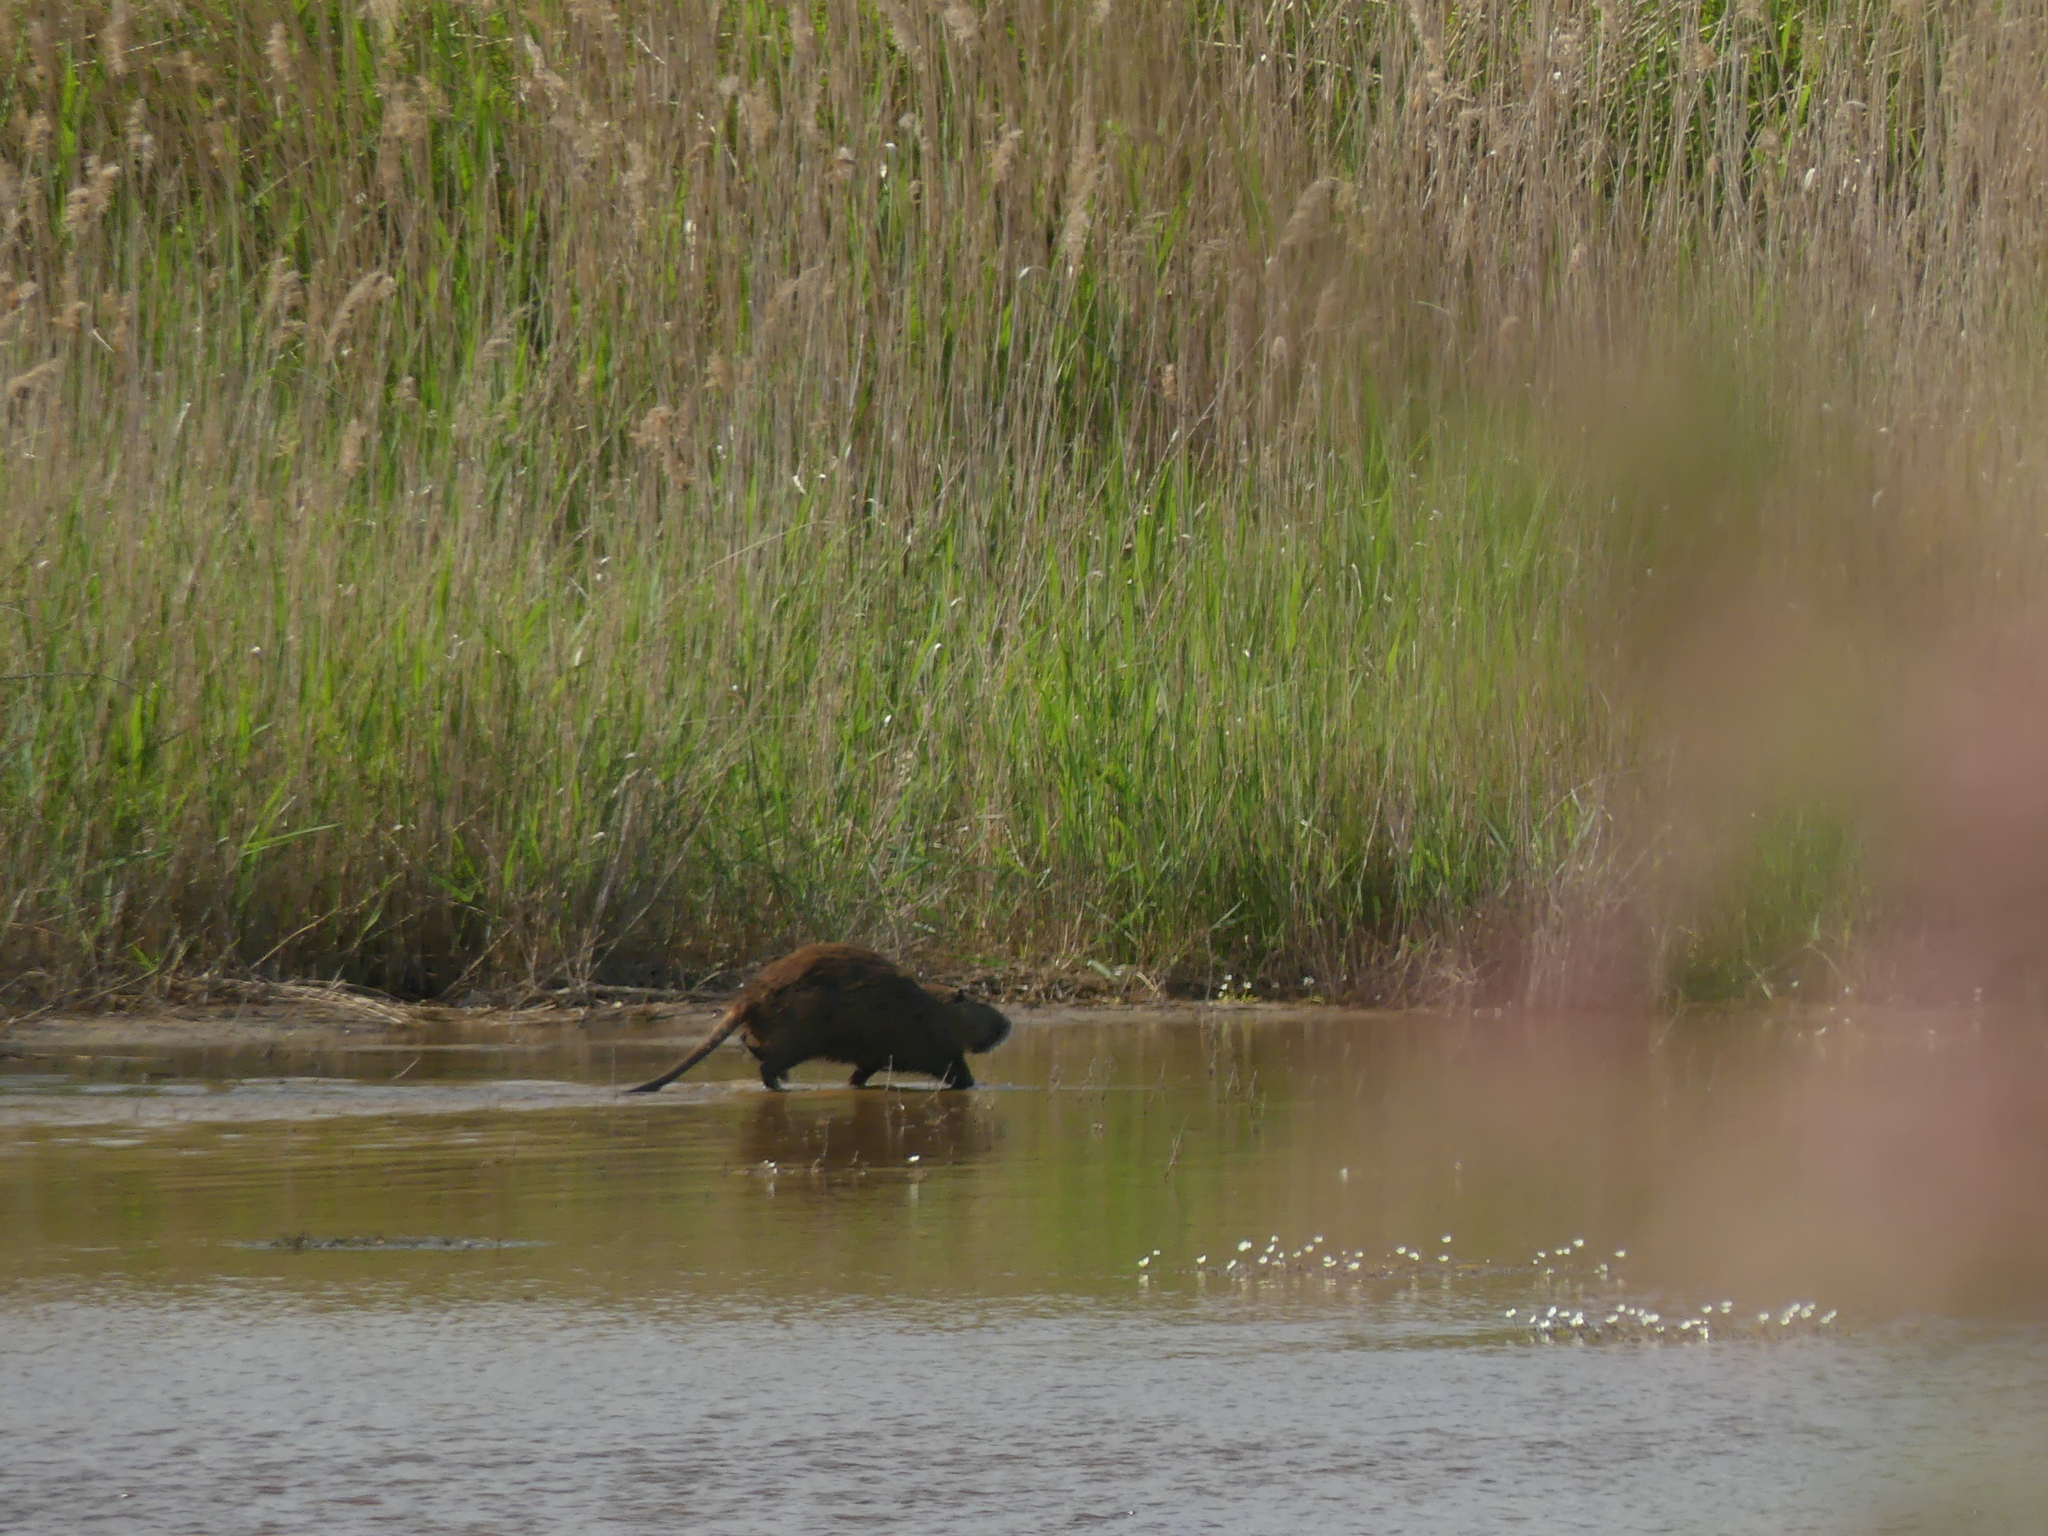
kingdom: Animalia
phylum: Chordata
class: Mammalia
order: Rodentia
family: Myocastoridae
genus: Myocastor
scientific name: Myocastor coypus
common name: Coypu
